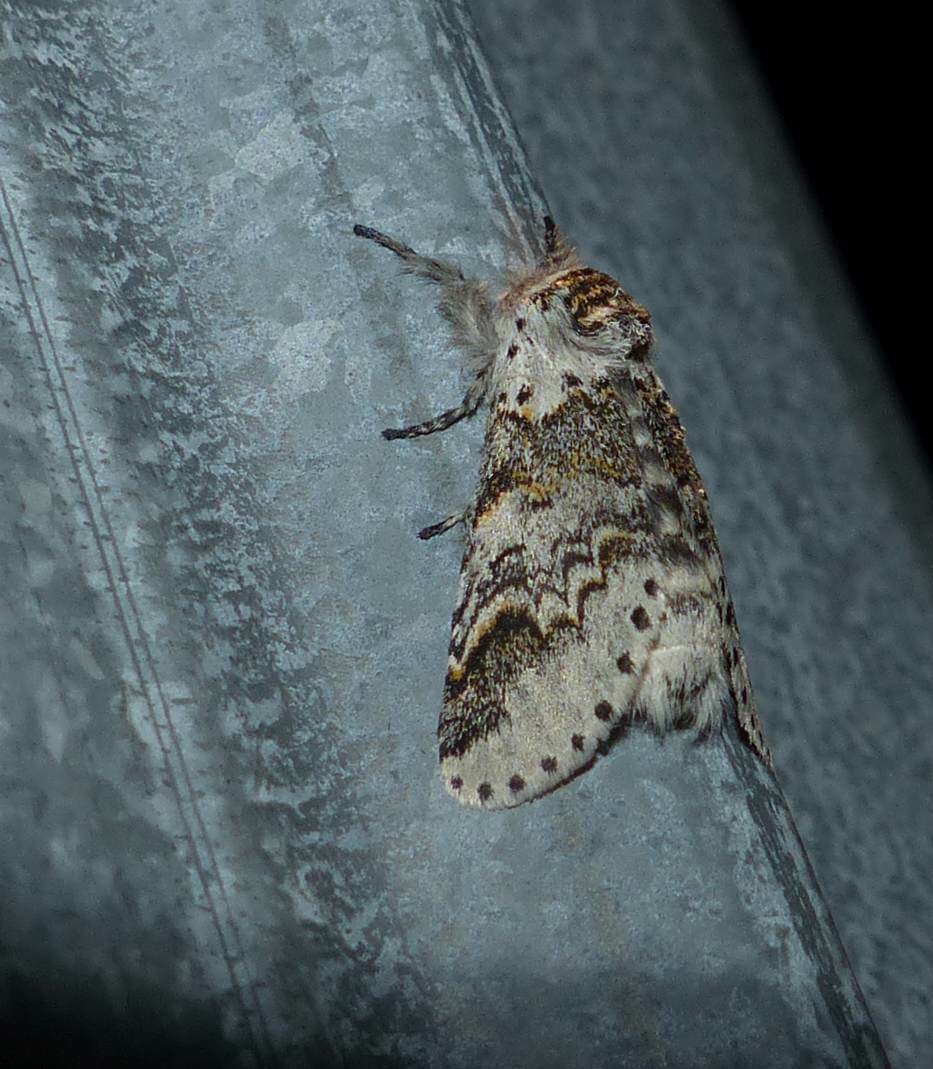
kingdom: Animalia
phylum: Arthropoda
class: Insecta
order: Lepidoptera
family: Notodontidae
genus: Furcula
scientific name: Furcula occidentalis
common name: Western furcula moth
